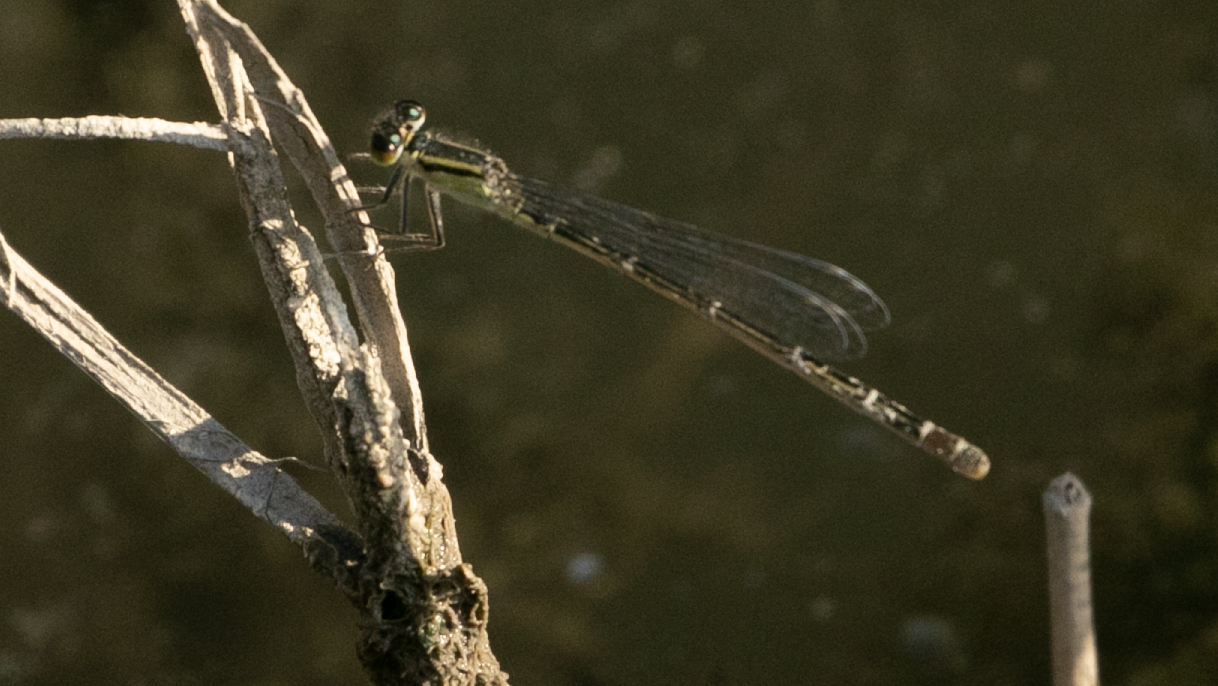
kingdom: Animalia
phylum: Arthropoda
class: Insecta
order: Odonata
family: Coenagrionidae
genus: Ischnura
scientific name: Ischnura elegans
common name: Blue-tailed damselfly
